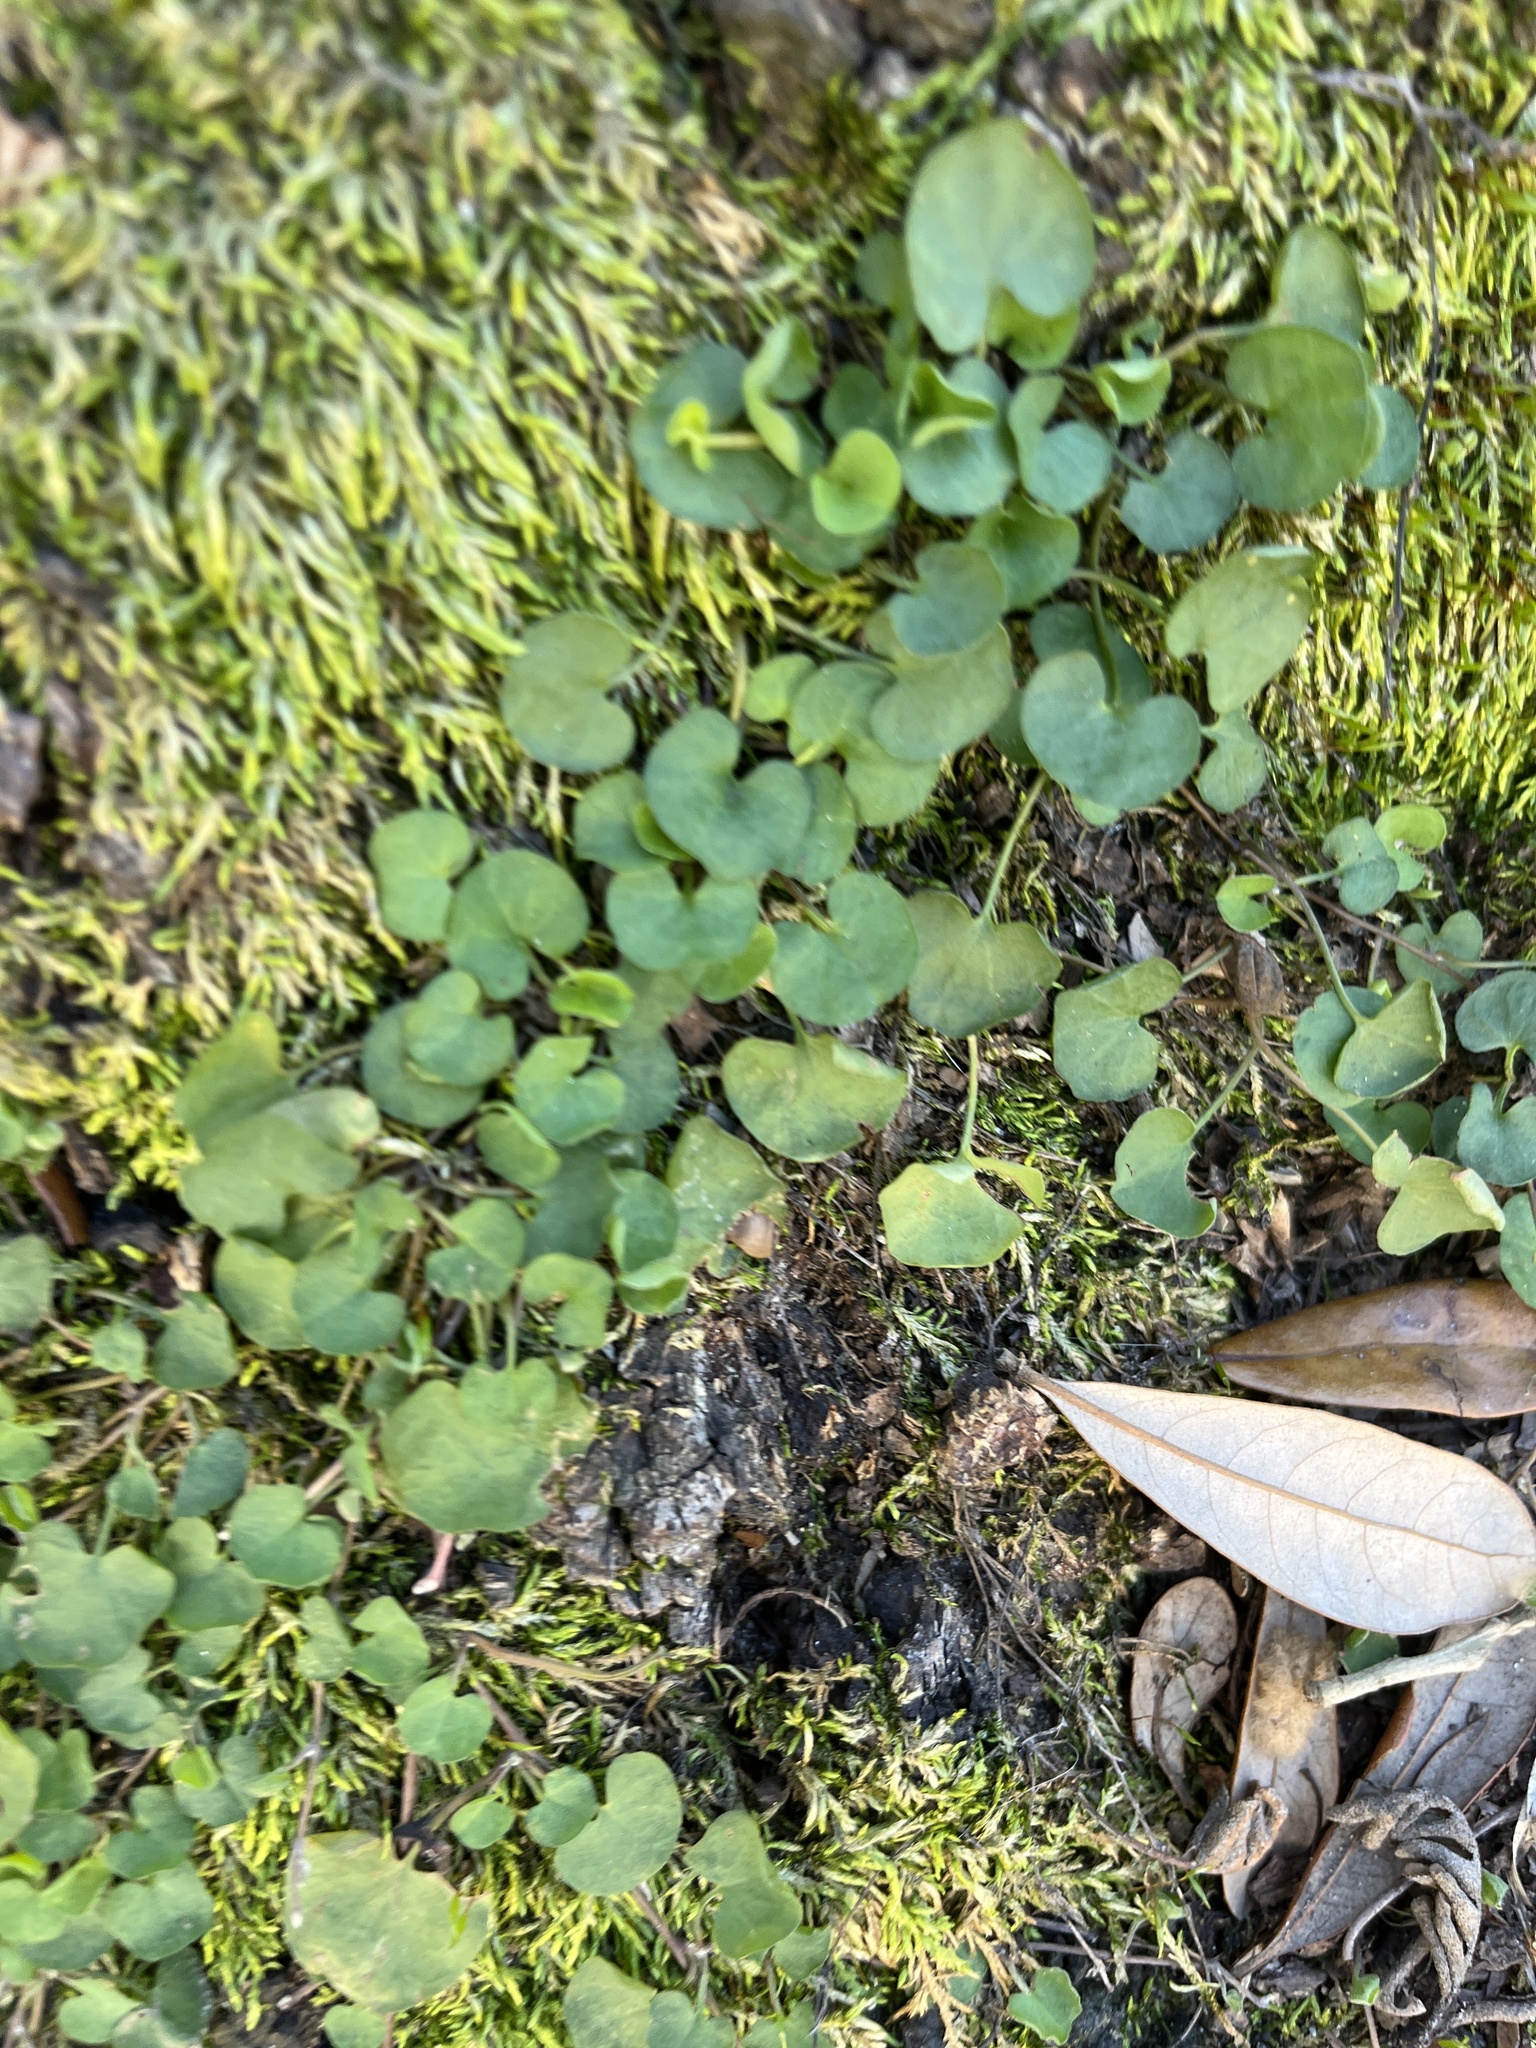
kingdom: Plantae
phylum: Tracheophyta
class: Magnoliopsida
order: Solanales
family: Convolvulaceae
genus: Dichondra
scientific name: Dichondra carolinensis
